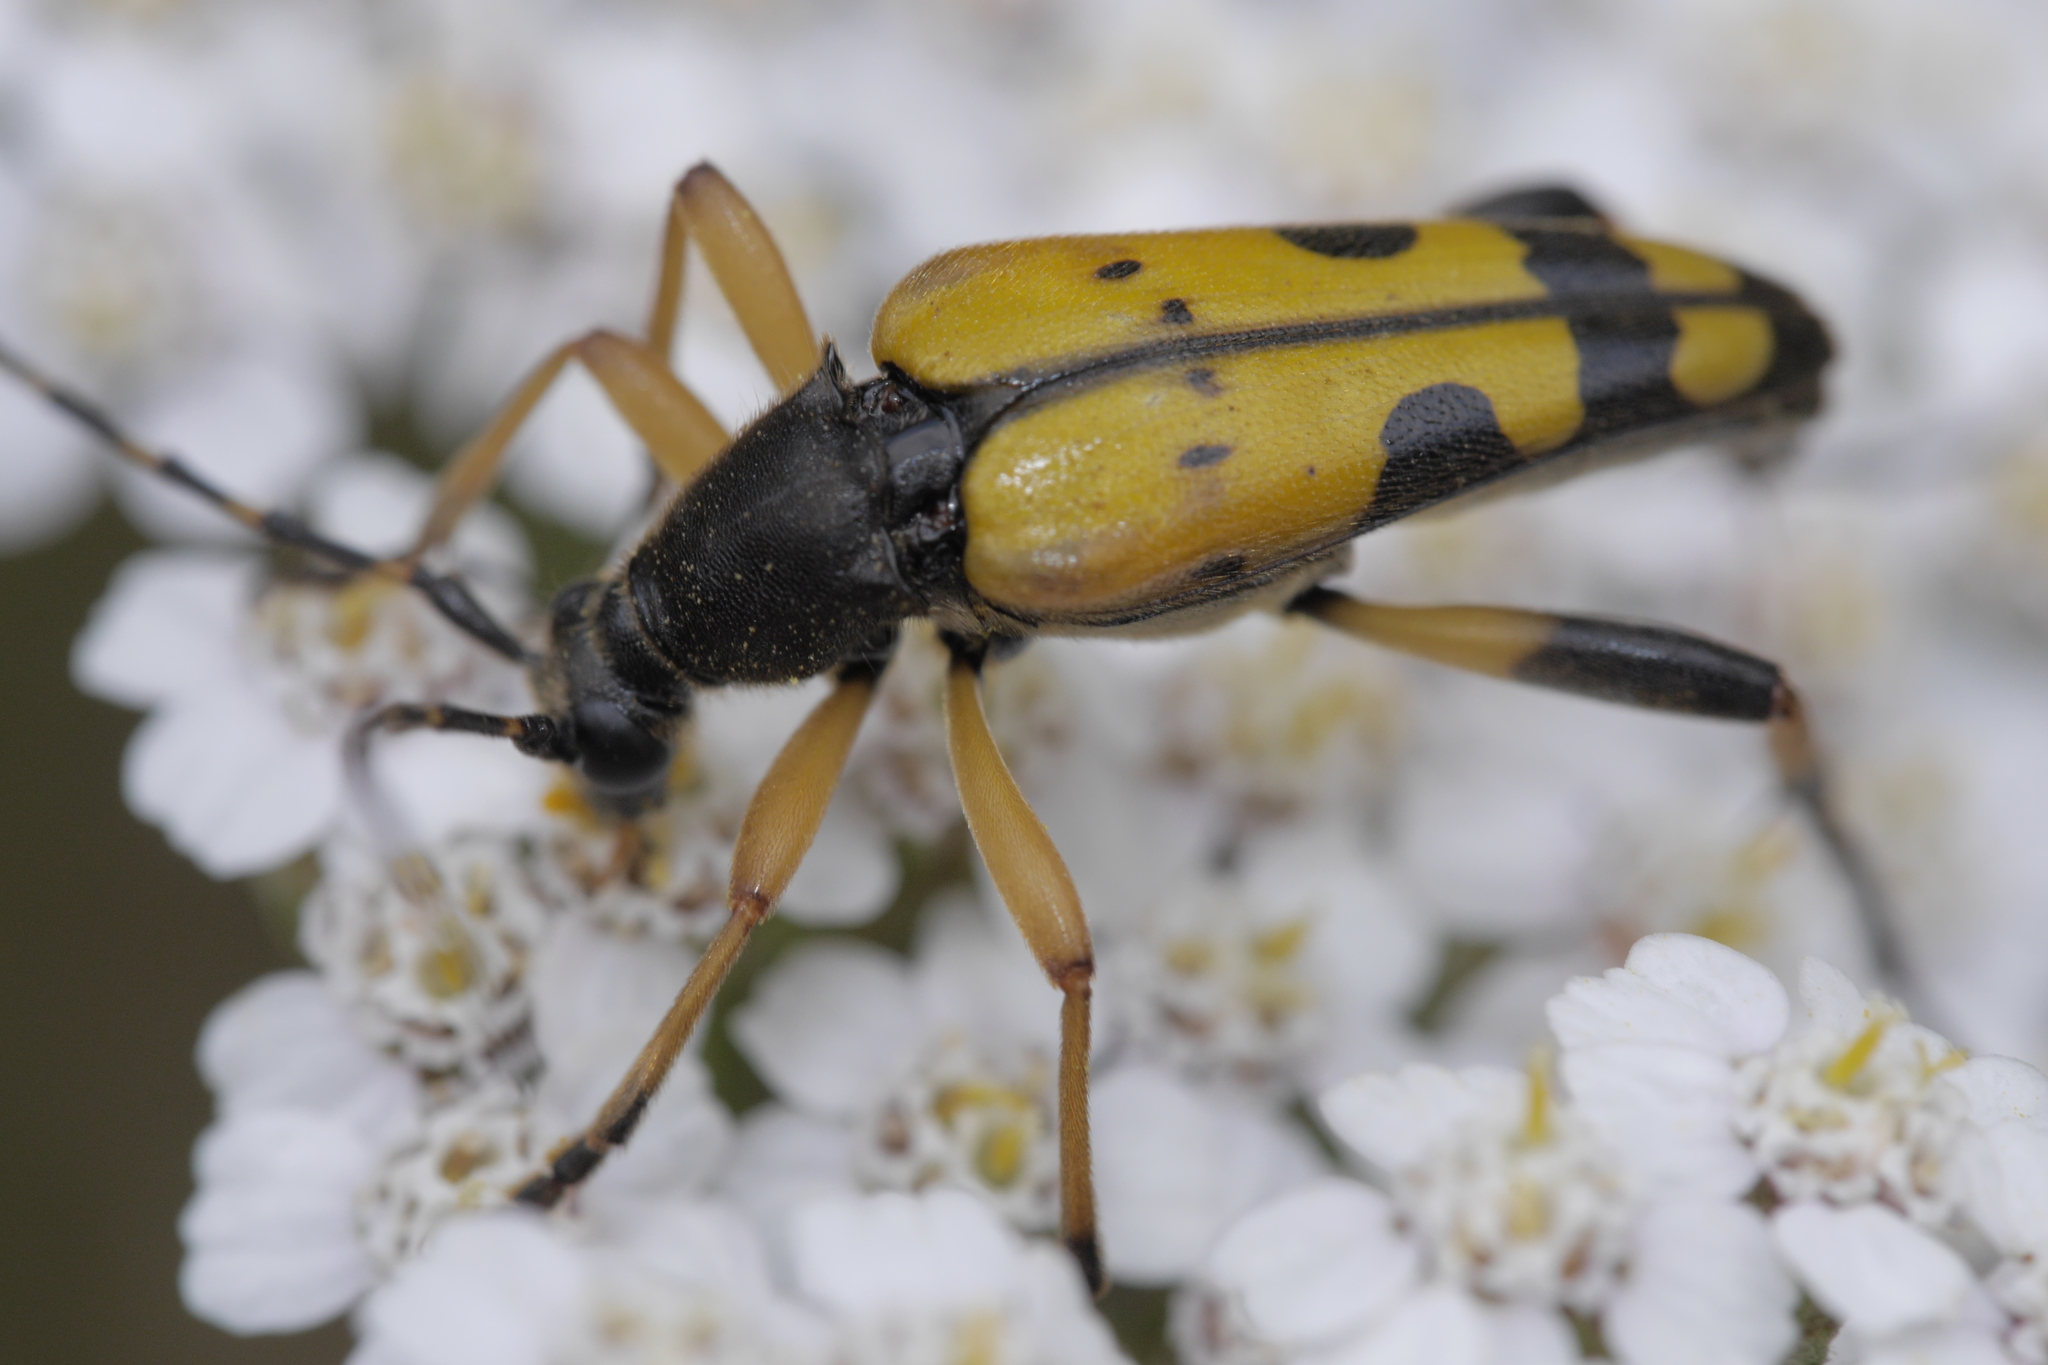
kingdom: Animalia
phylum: Arthropoda
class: Insecta
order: Coleoptera
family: Cerambycidae
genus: Rutpela
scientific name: Rutpela maculata
